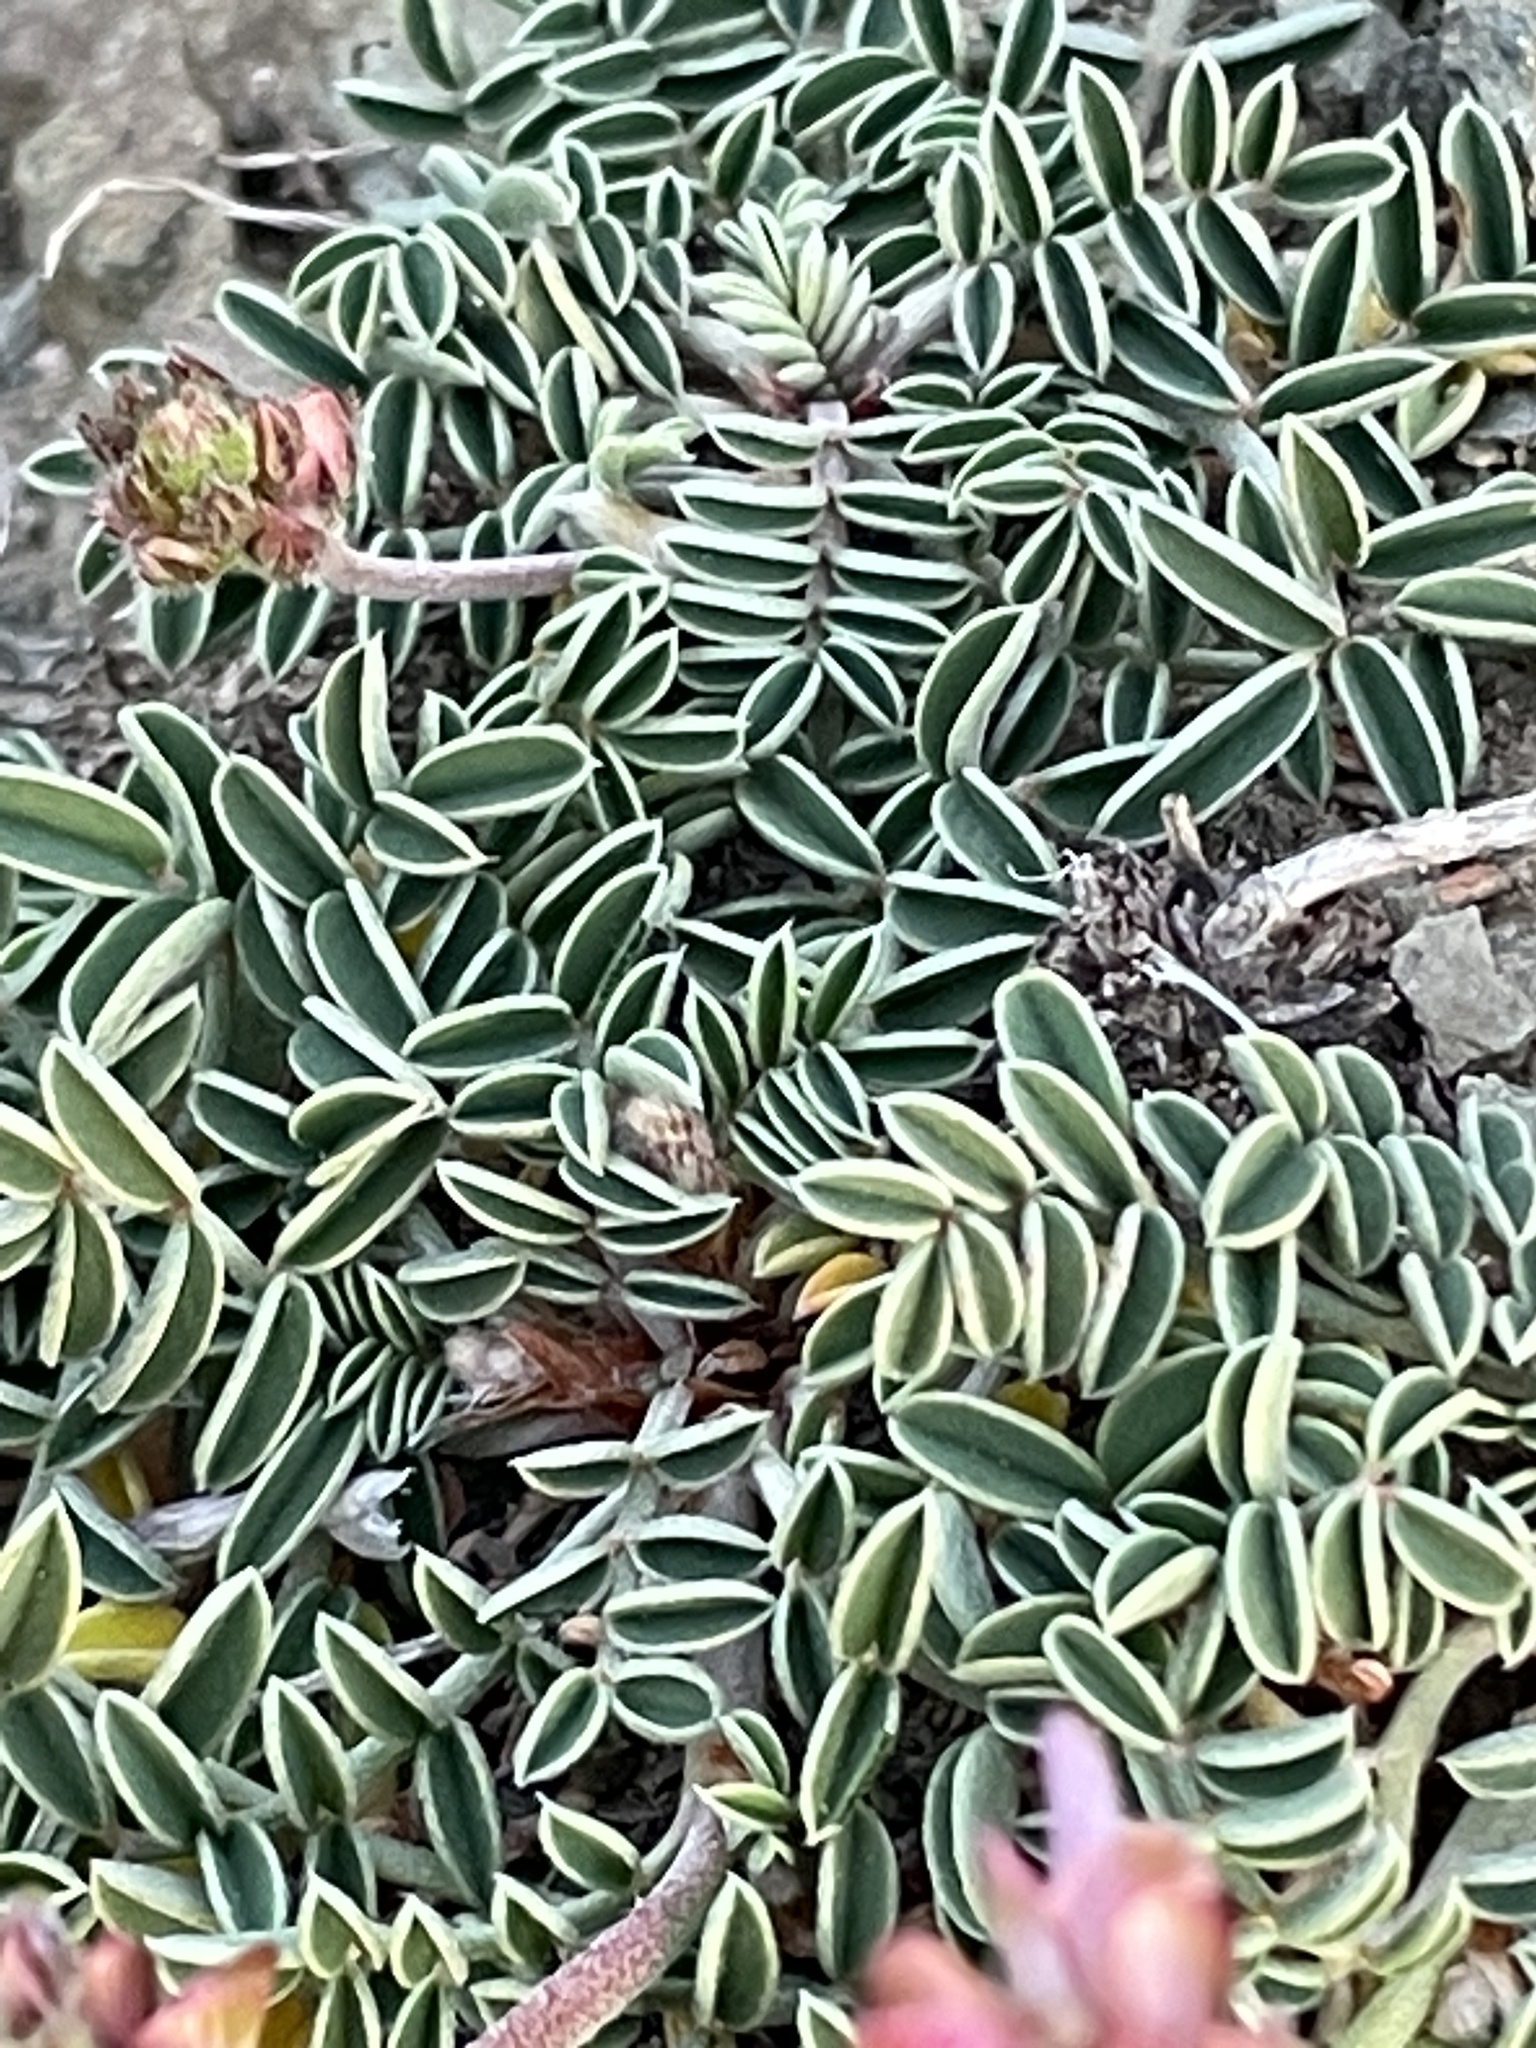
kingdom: Plantae
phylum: Tracheophyta
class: Magnoliopsida
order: Fabales
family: Fabaceae
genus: Onobrychis
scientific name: Onobrychis conferta
